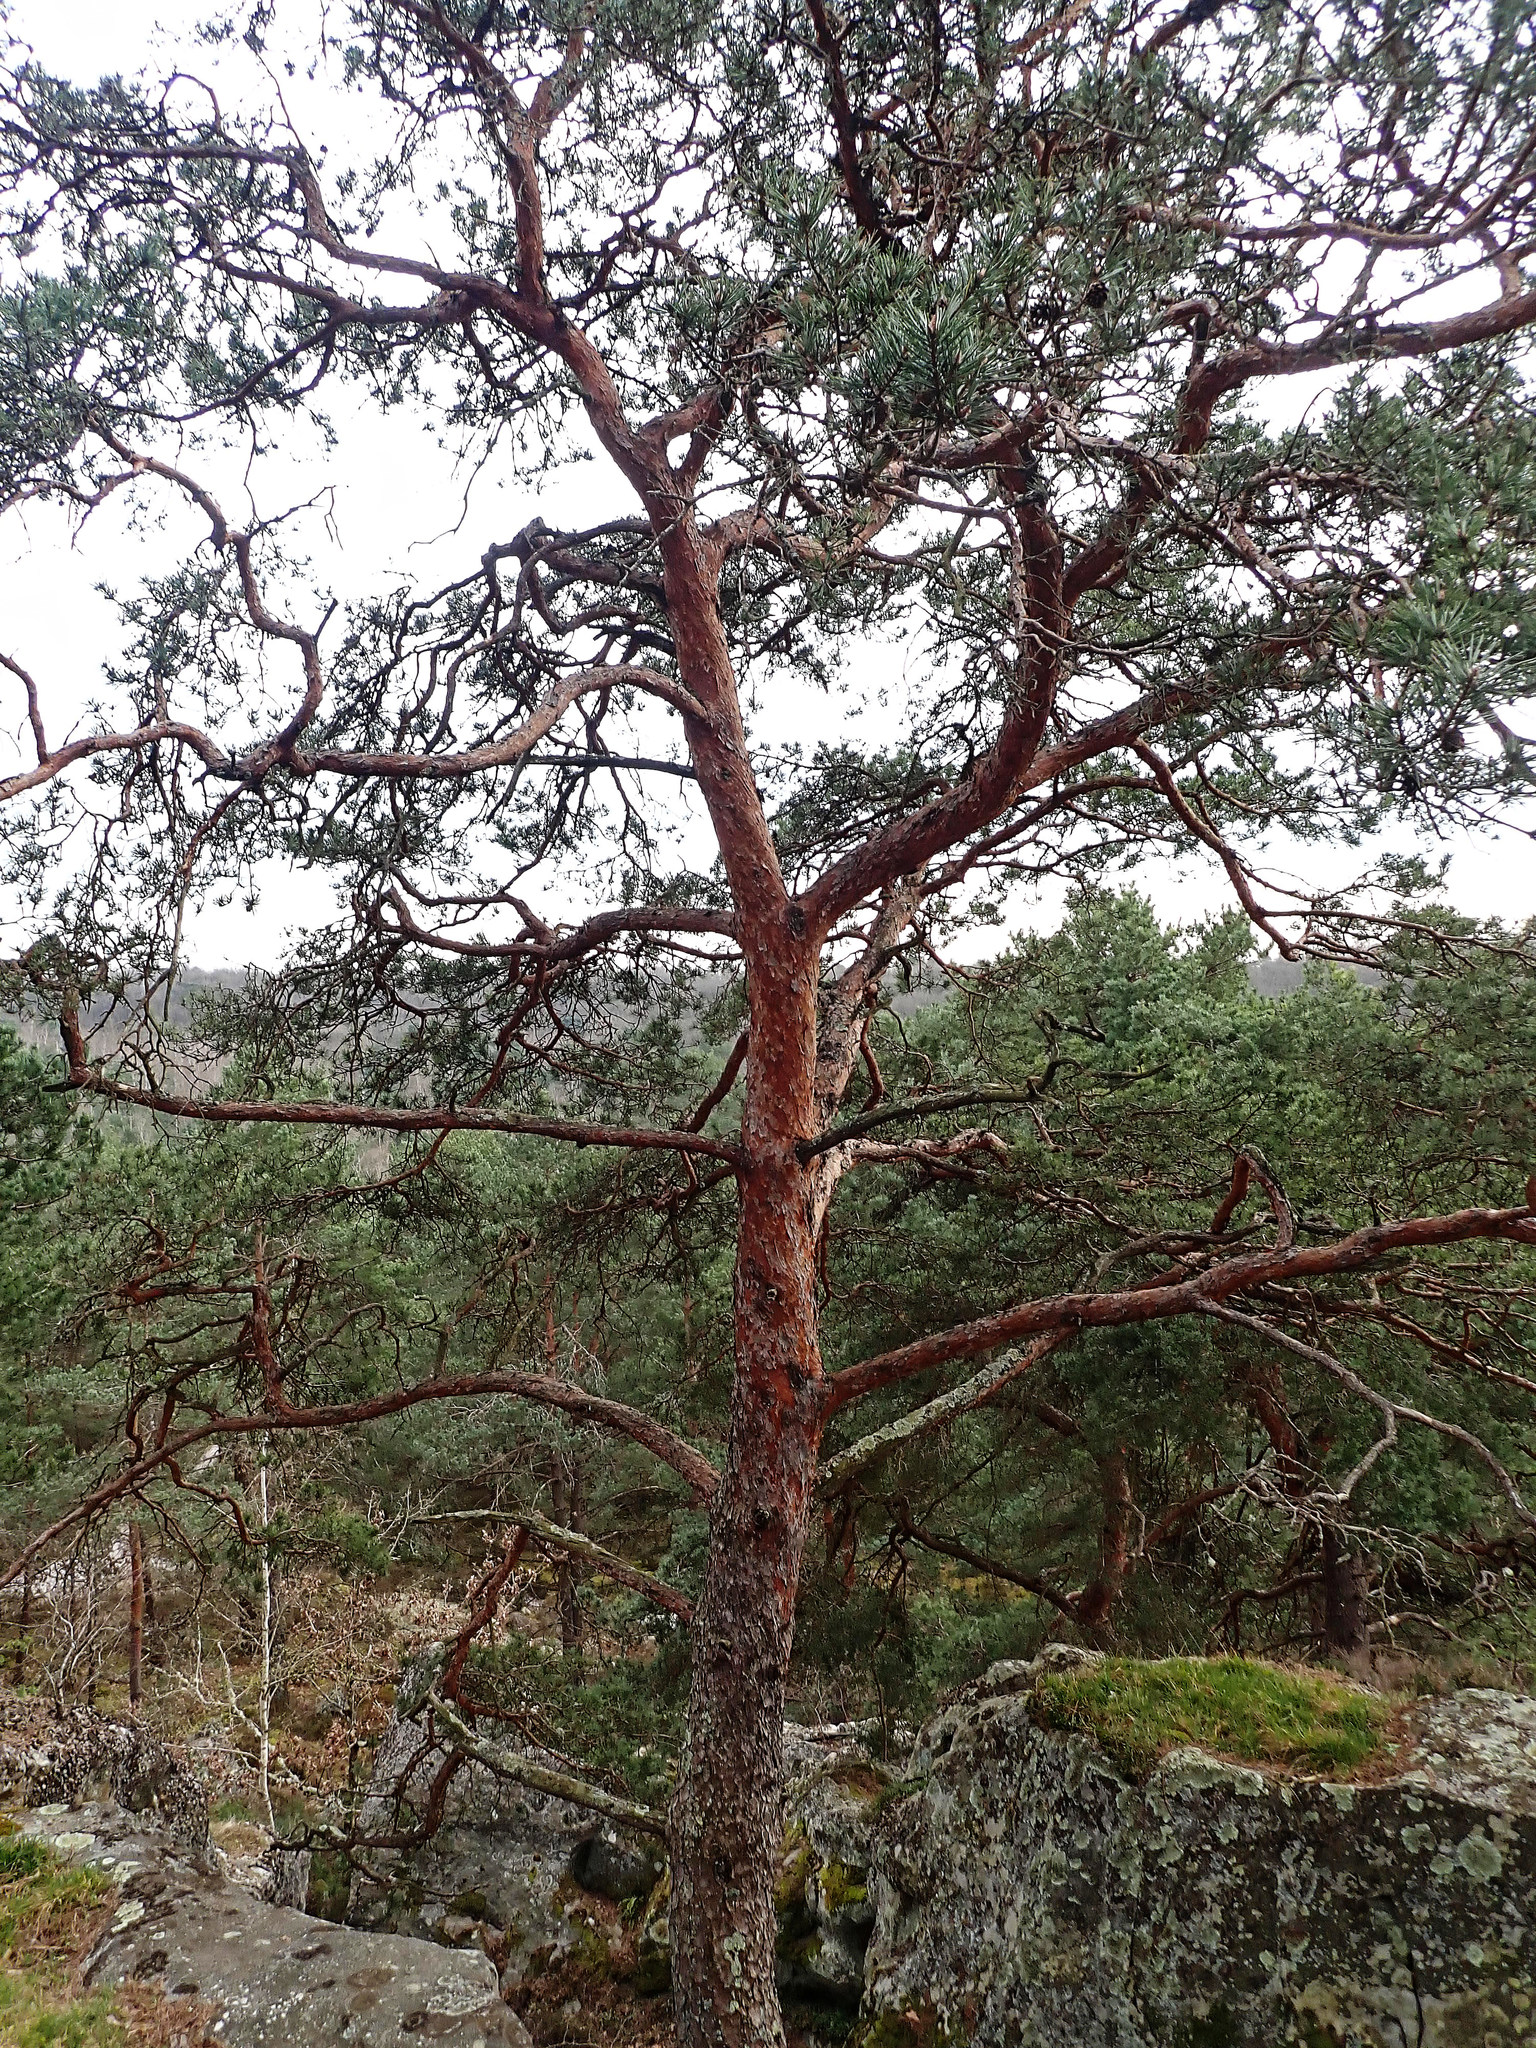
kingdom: Plantae
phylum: Tracheophyta
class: Pinopsida
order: Pinales
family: Pinaceae
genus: Pinus
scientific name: Pinus sylvestris
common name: Scots pine
